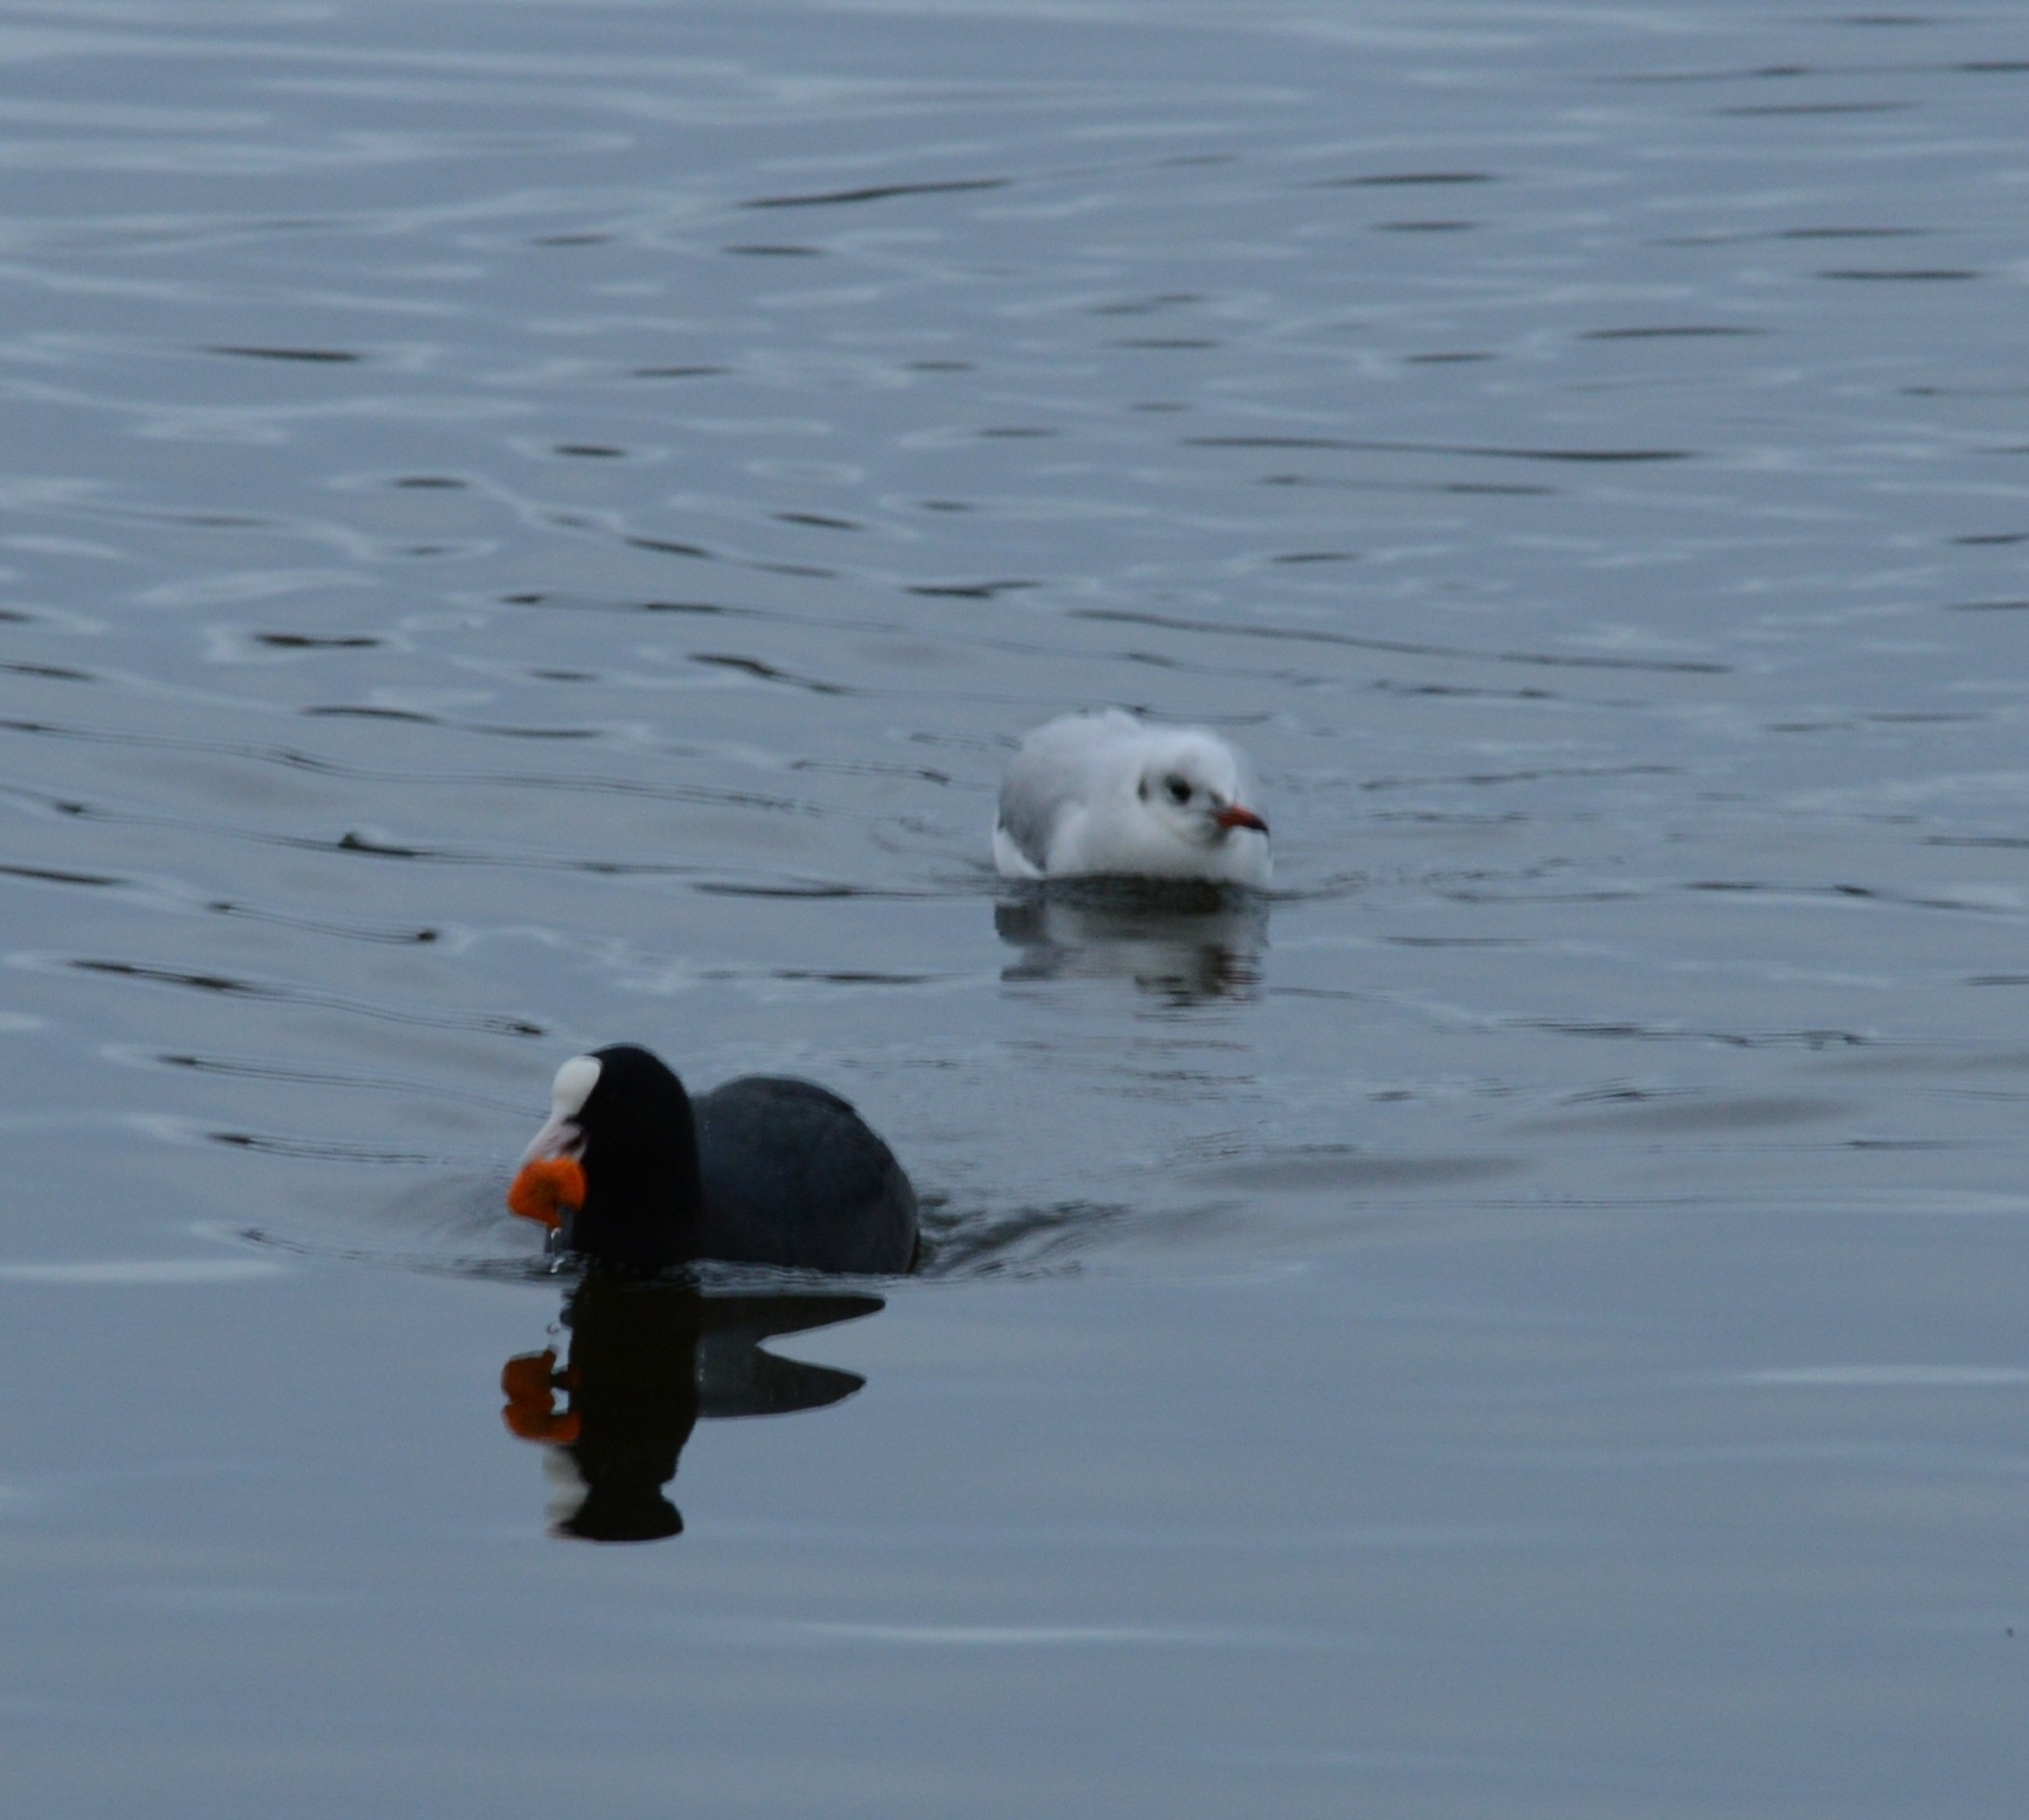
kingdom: Animalia
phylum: Chordata
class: Aves
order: Charadriiformes
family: Laridae
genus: Chroicocephalus
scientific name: Chroicocephalus ridibundus
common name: Black-headed gull
